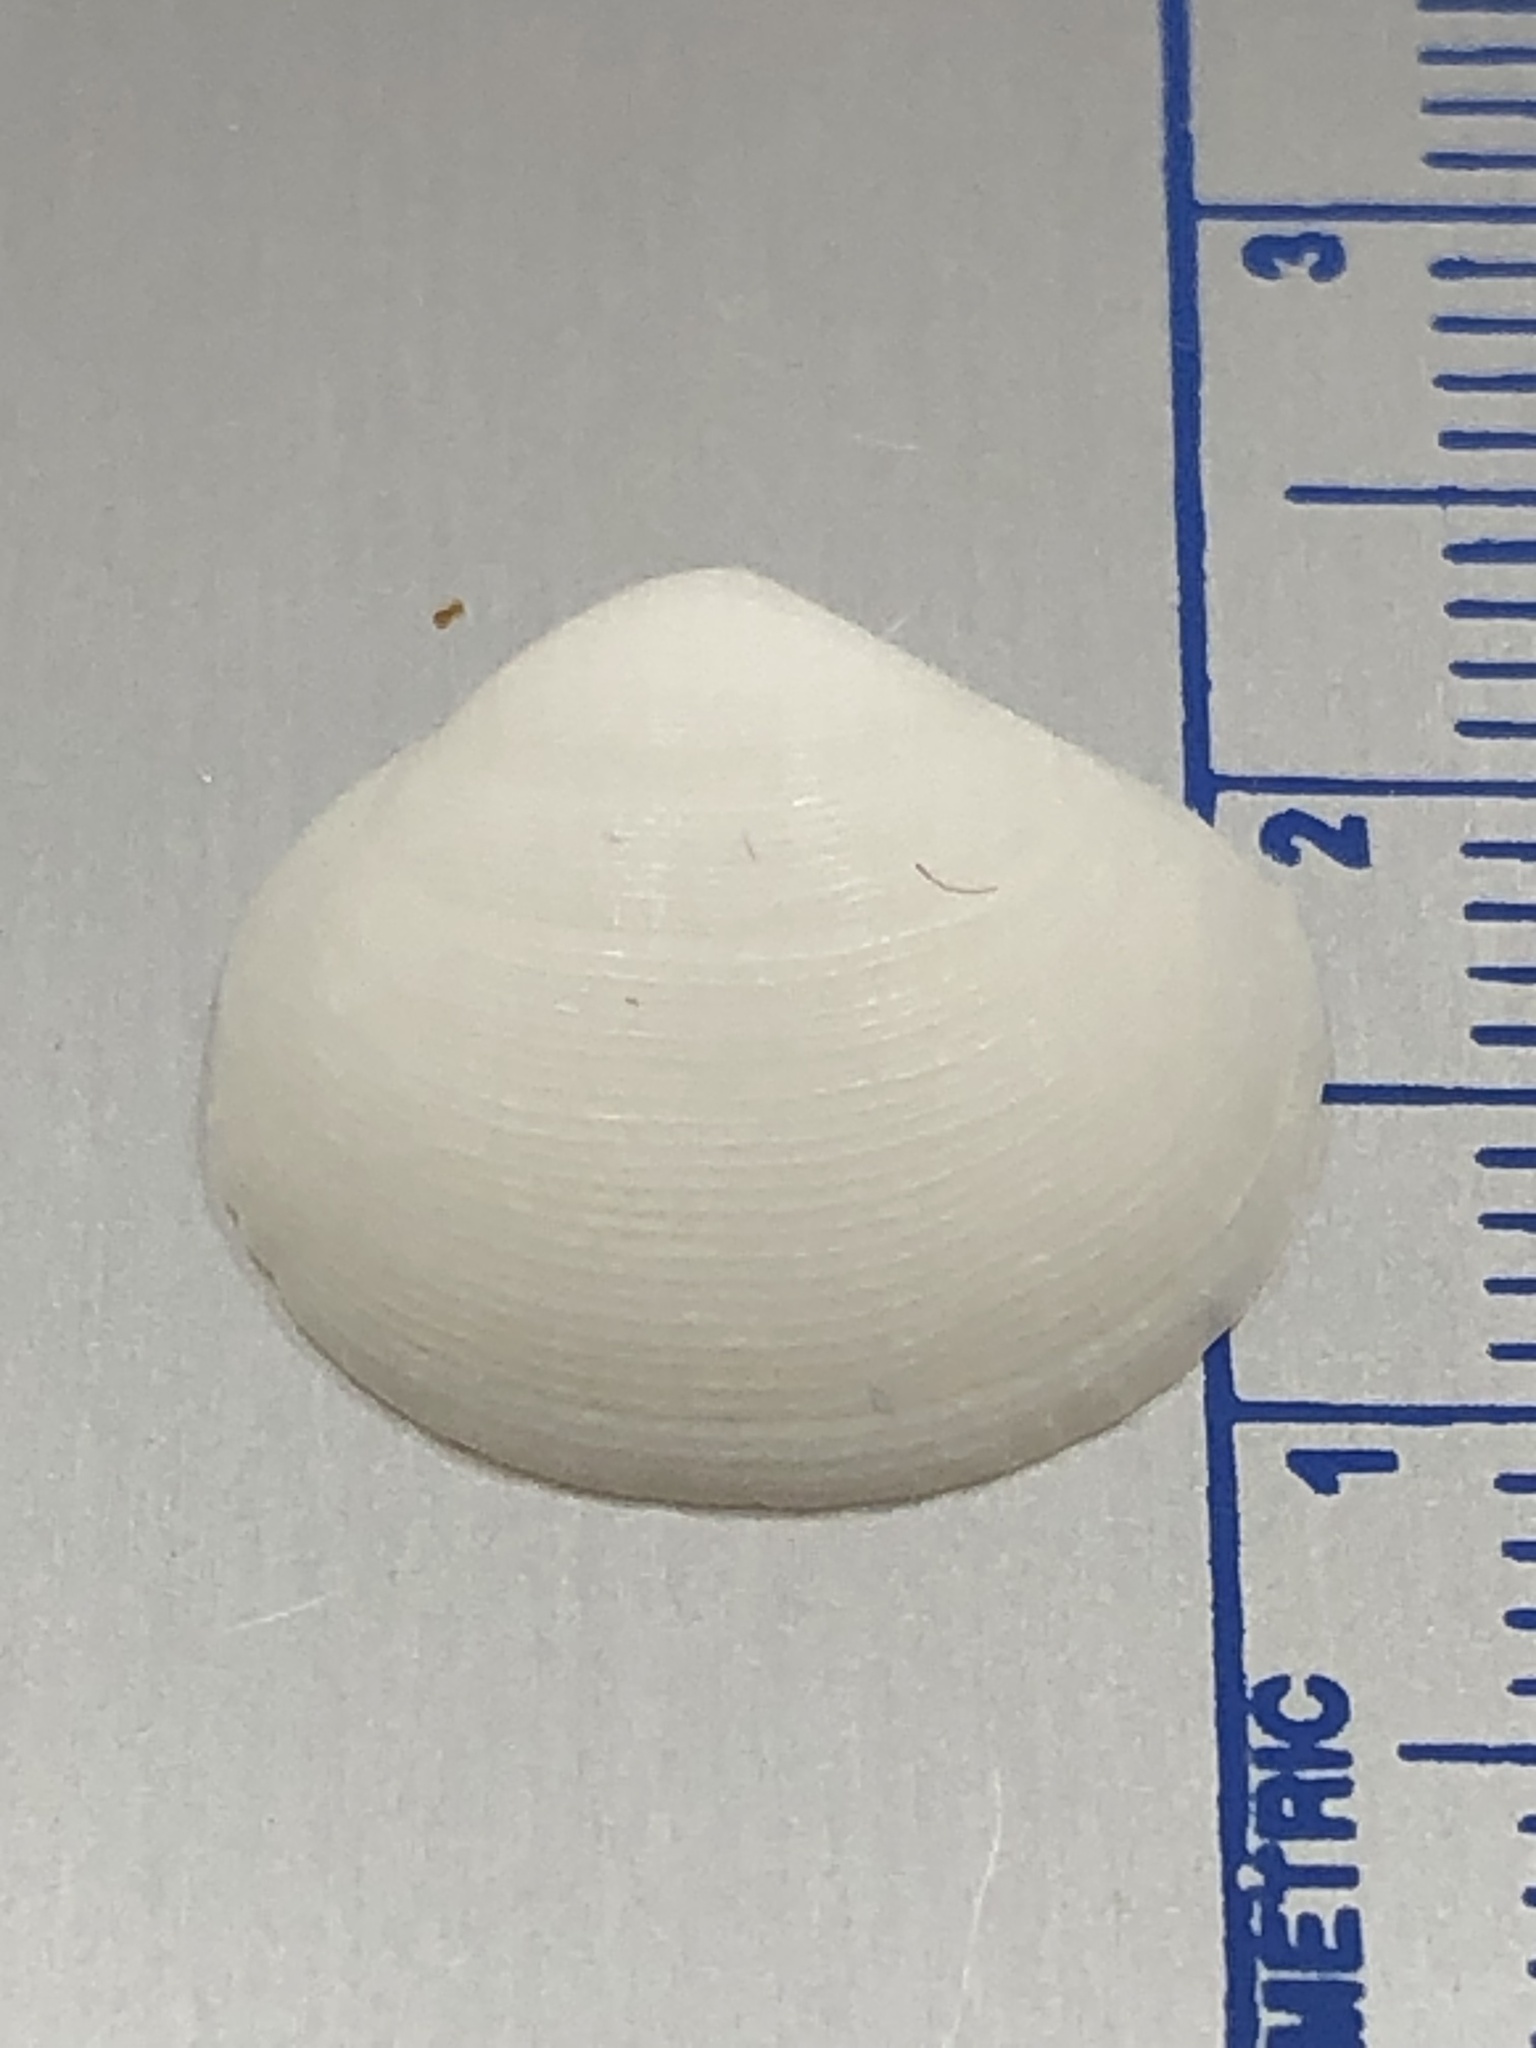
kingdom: Animalia
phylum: Mollusca
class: Bivalvia
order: Lucinida
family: Lucinidae
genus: Callucina
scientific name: Callucina keenae
